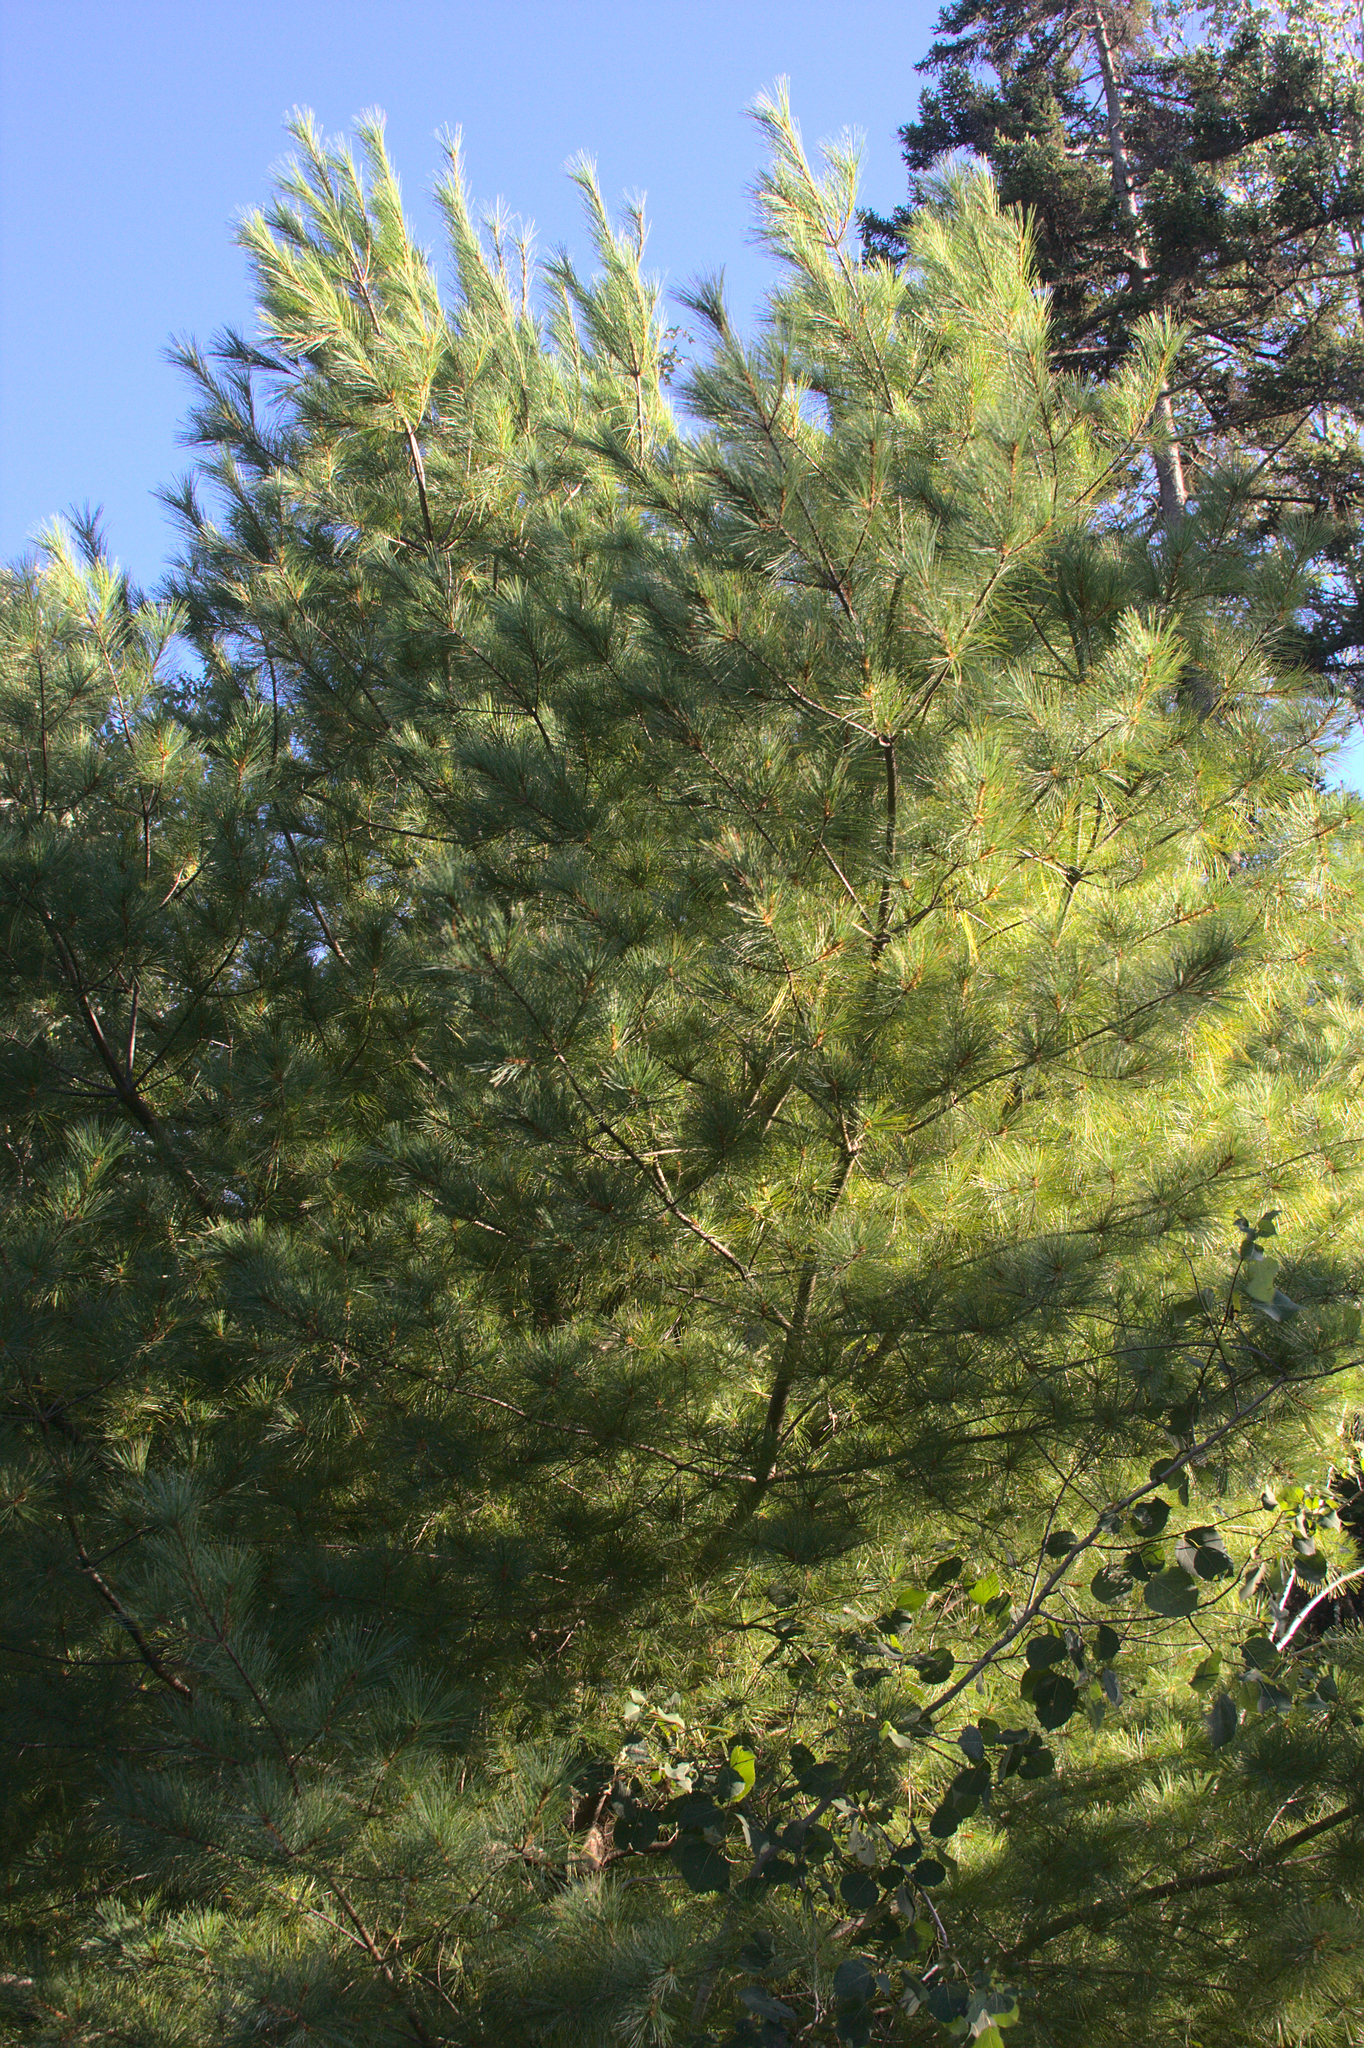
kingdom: Plantae
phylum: Tracheophyta
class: Pinopsida
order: Pinales
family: Pinaceae
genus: Pinus
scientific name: Pinus strobus
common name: Weymouth pine
